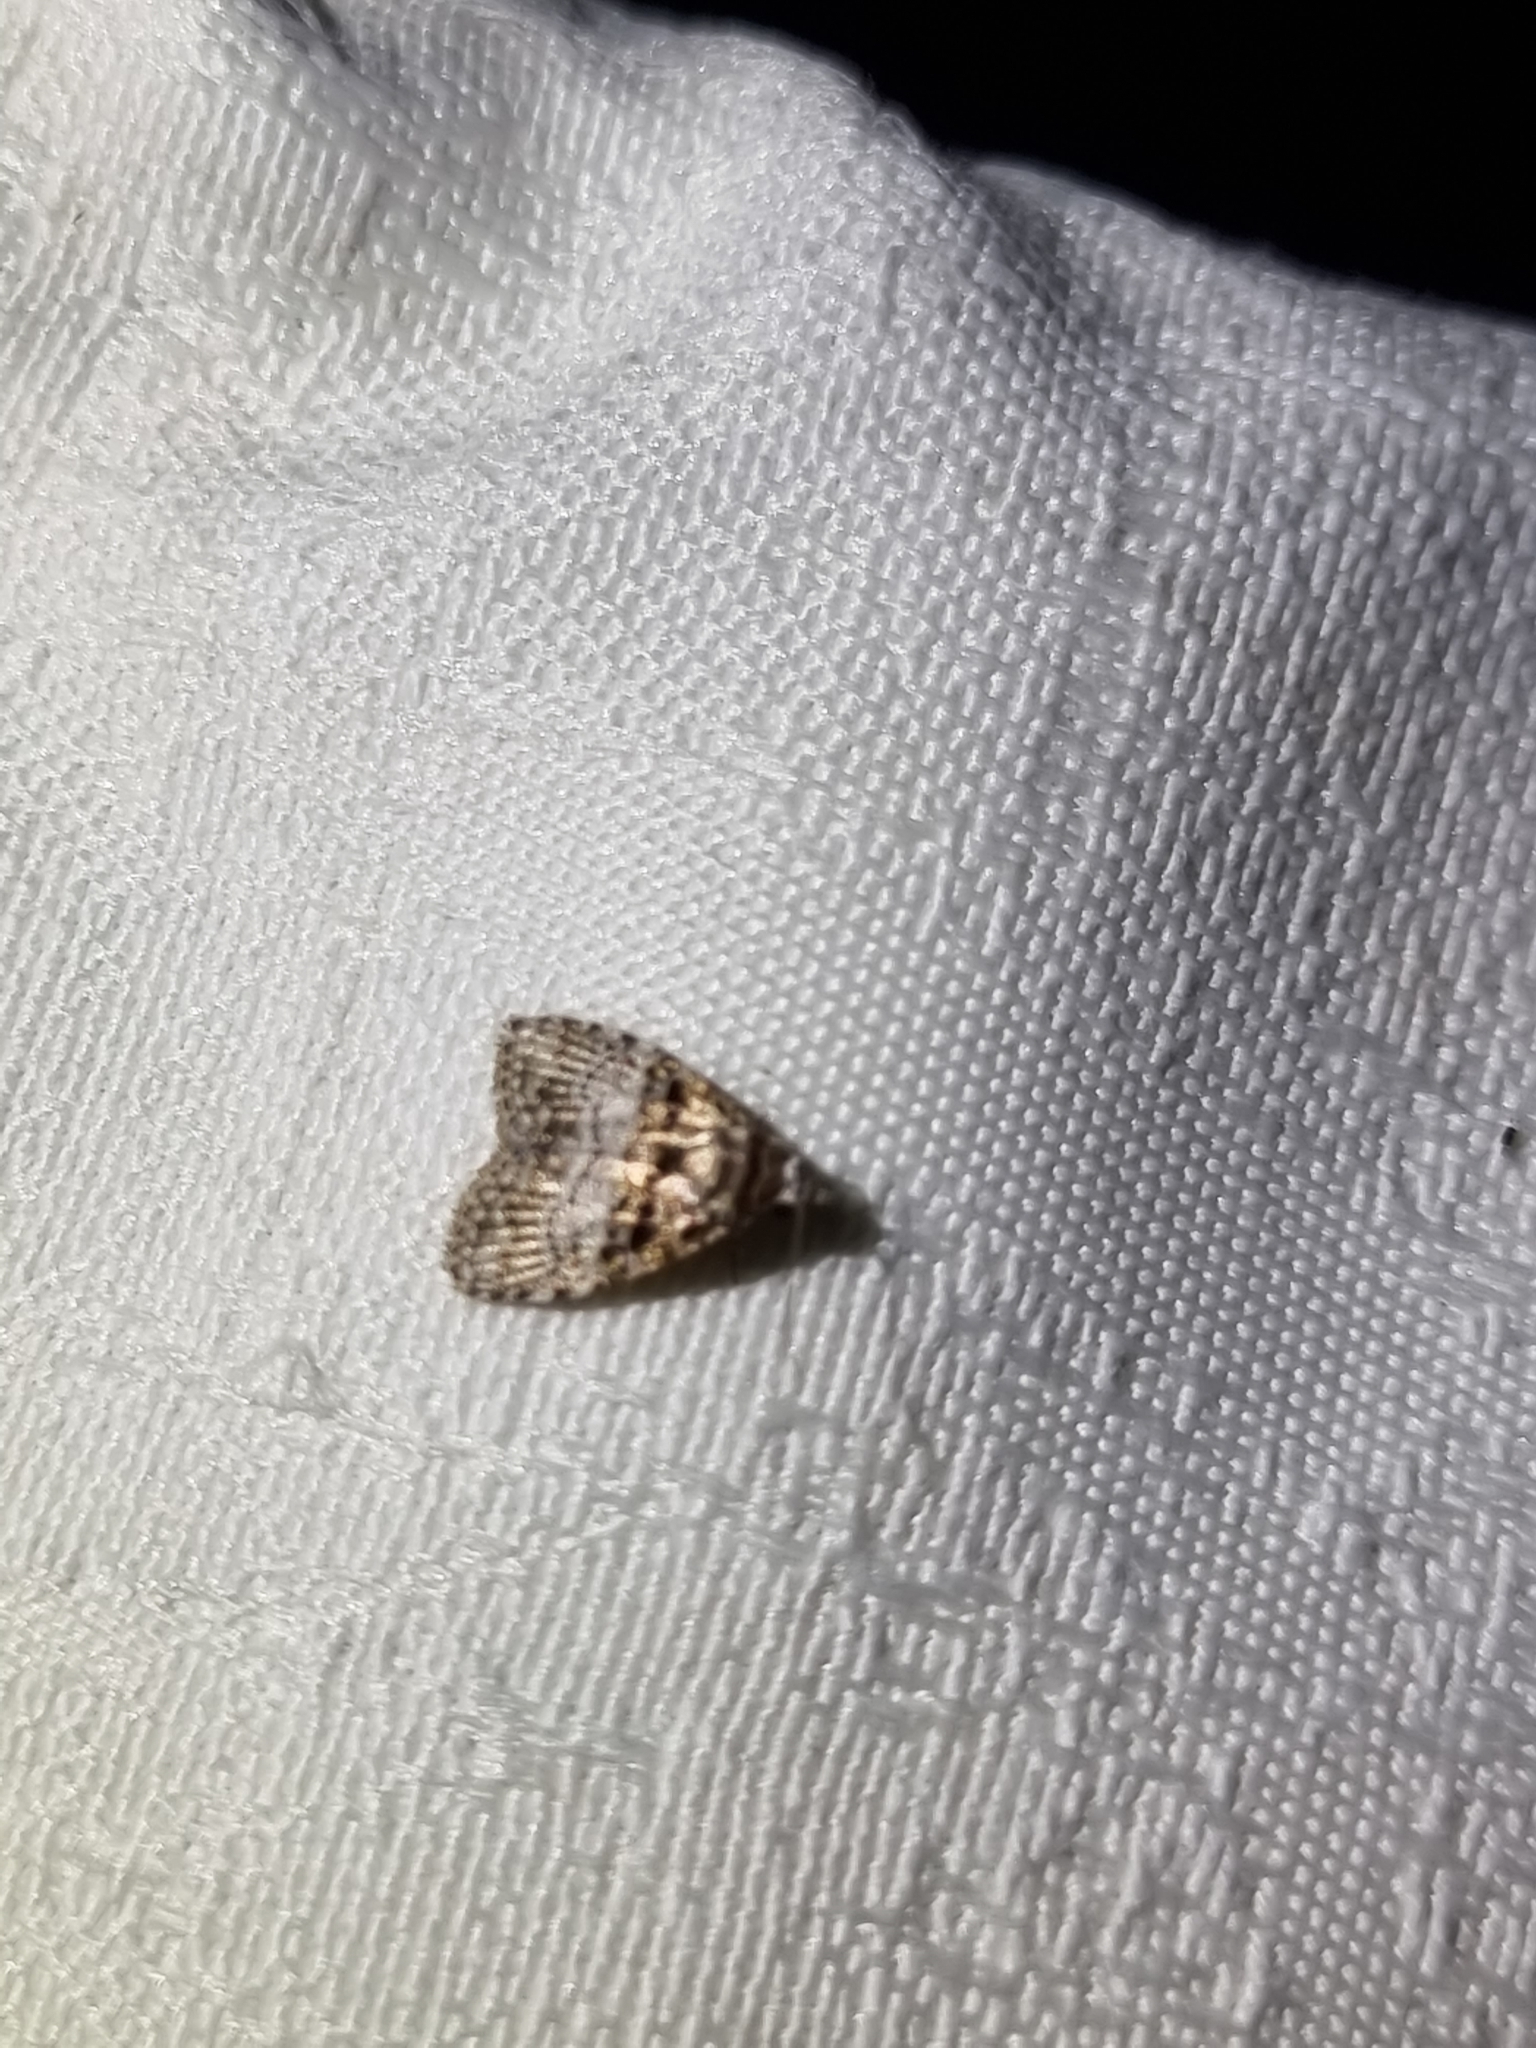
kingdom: Animalia
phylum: Arthropoda
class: Insecta
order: Lepidoptera
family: Nolidae
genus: Nola
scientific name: Nola Pisara hyalospila
